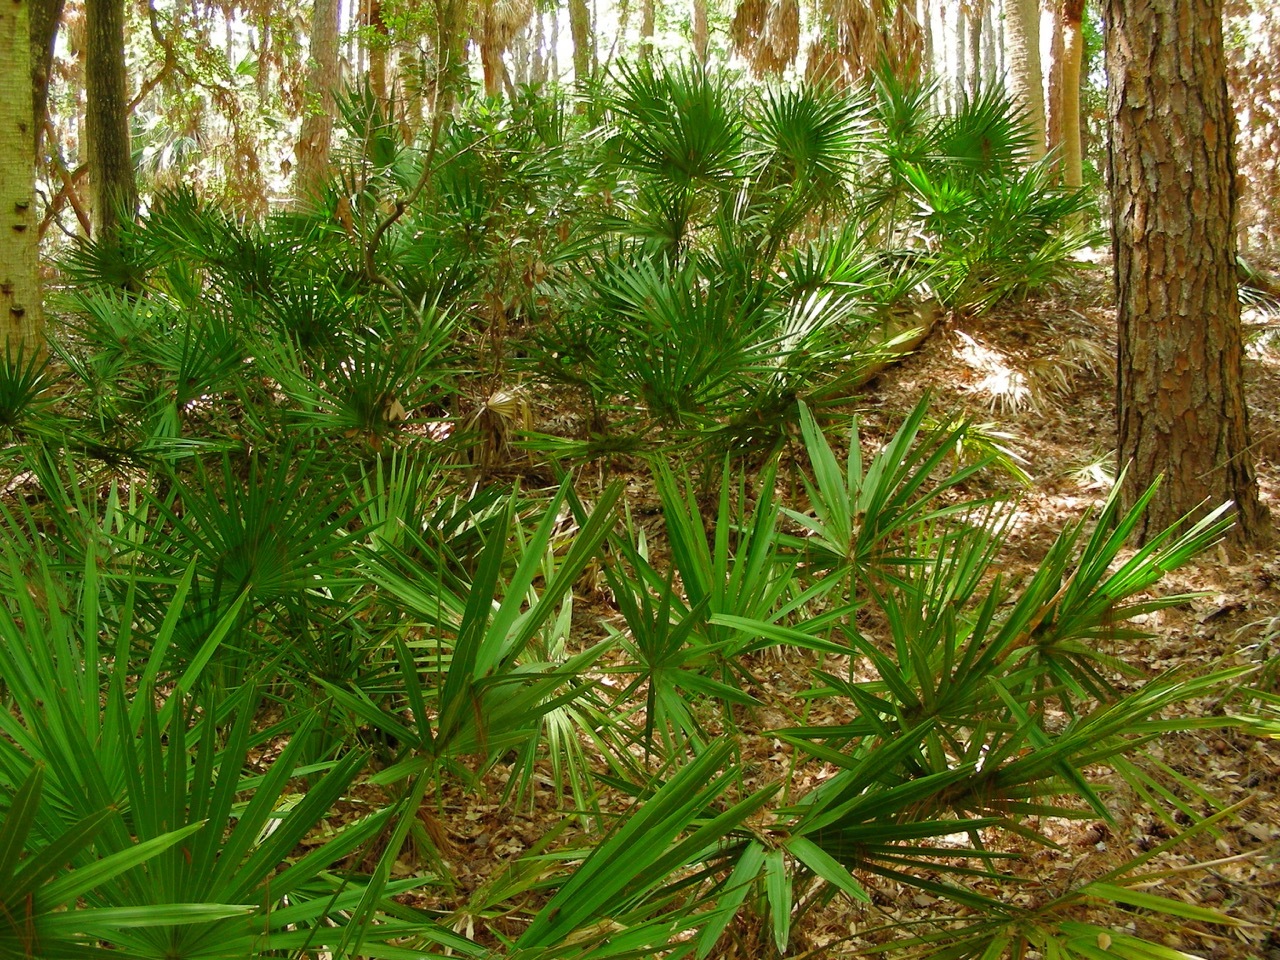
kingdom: Plantae
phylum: Tracheophyta
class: Liliopsida
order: Arecales
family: Arecaceae
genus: Serenoa
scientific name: Serenoa repens
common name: Saw-palmetto
